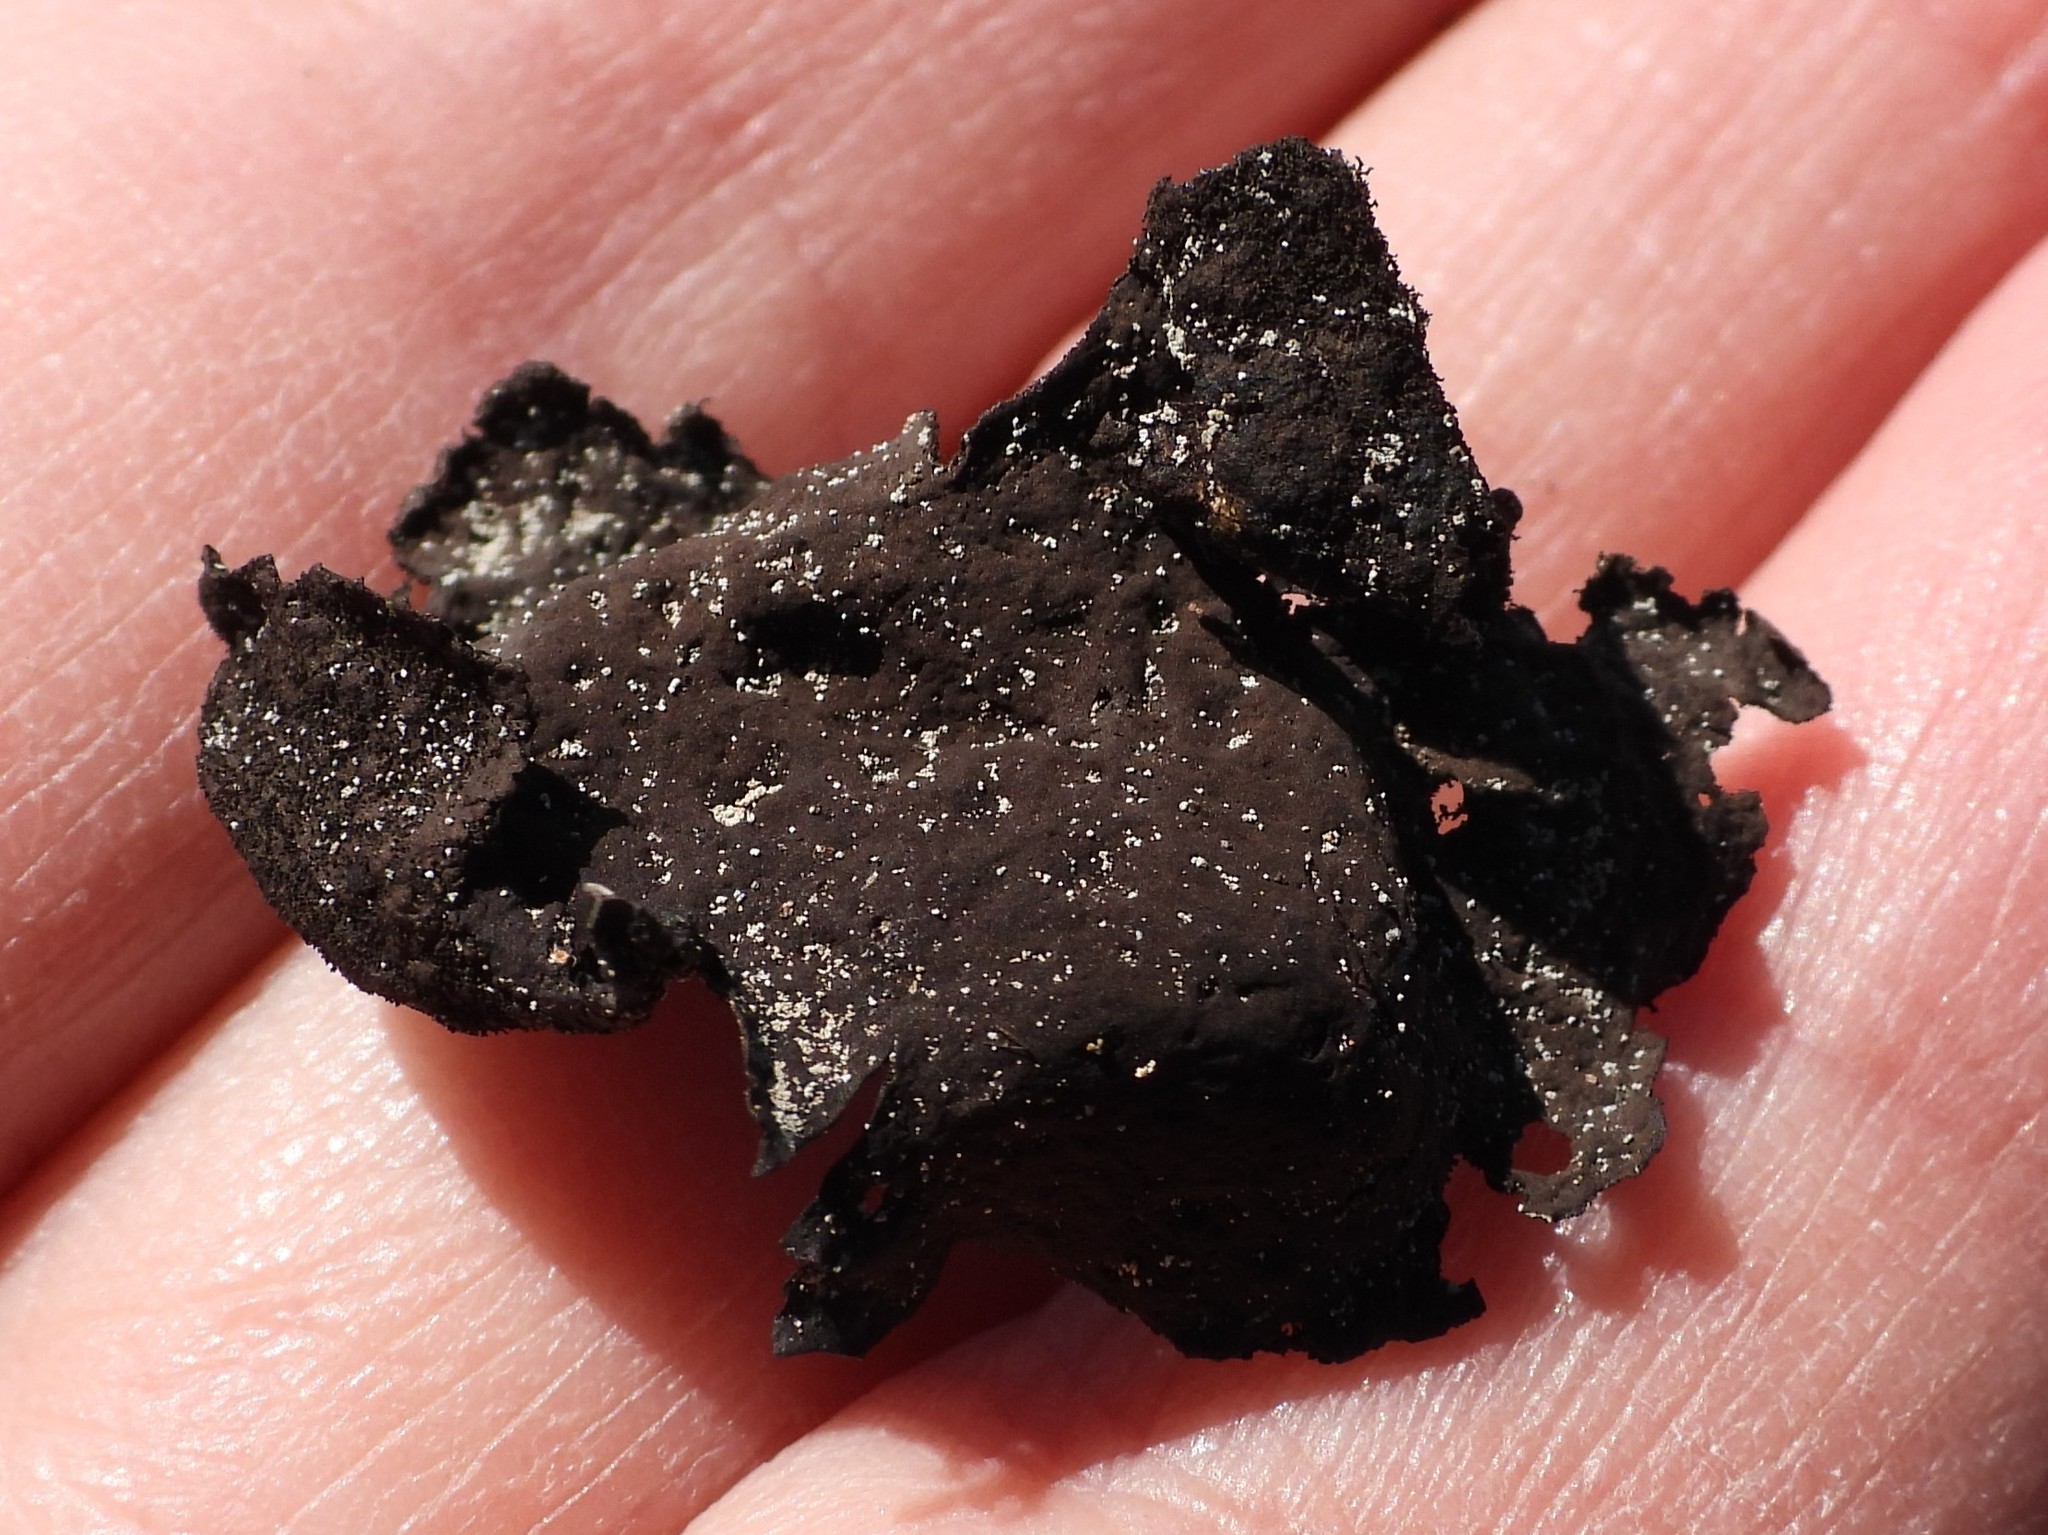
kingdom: Fungi
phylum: Ascomycota
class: Lecanoromycetes
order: Umbilicariales
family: Umbilicariaceae
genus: Umbilicaria
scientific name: Umbilicaria deusta
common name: Peppered rock tripe
